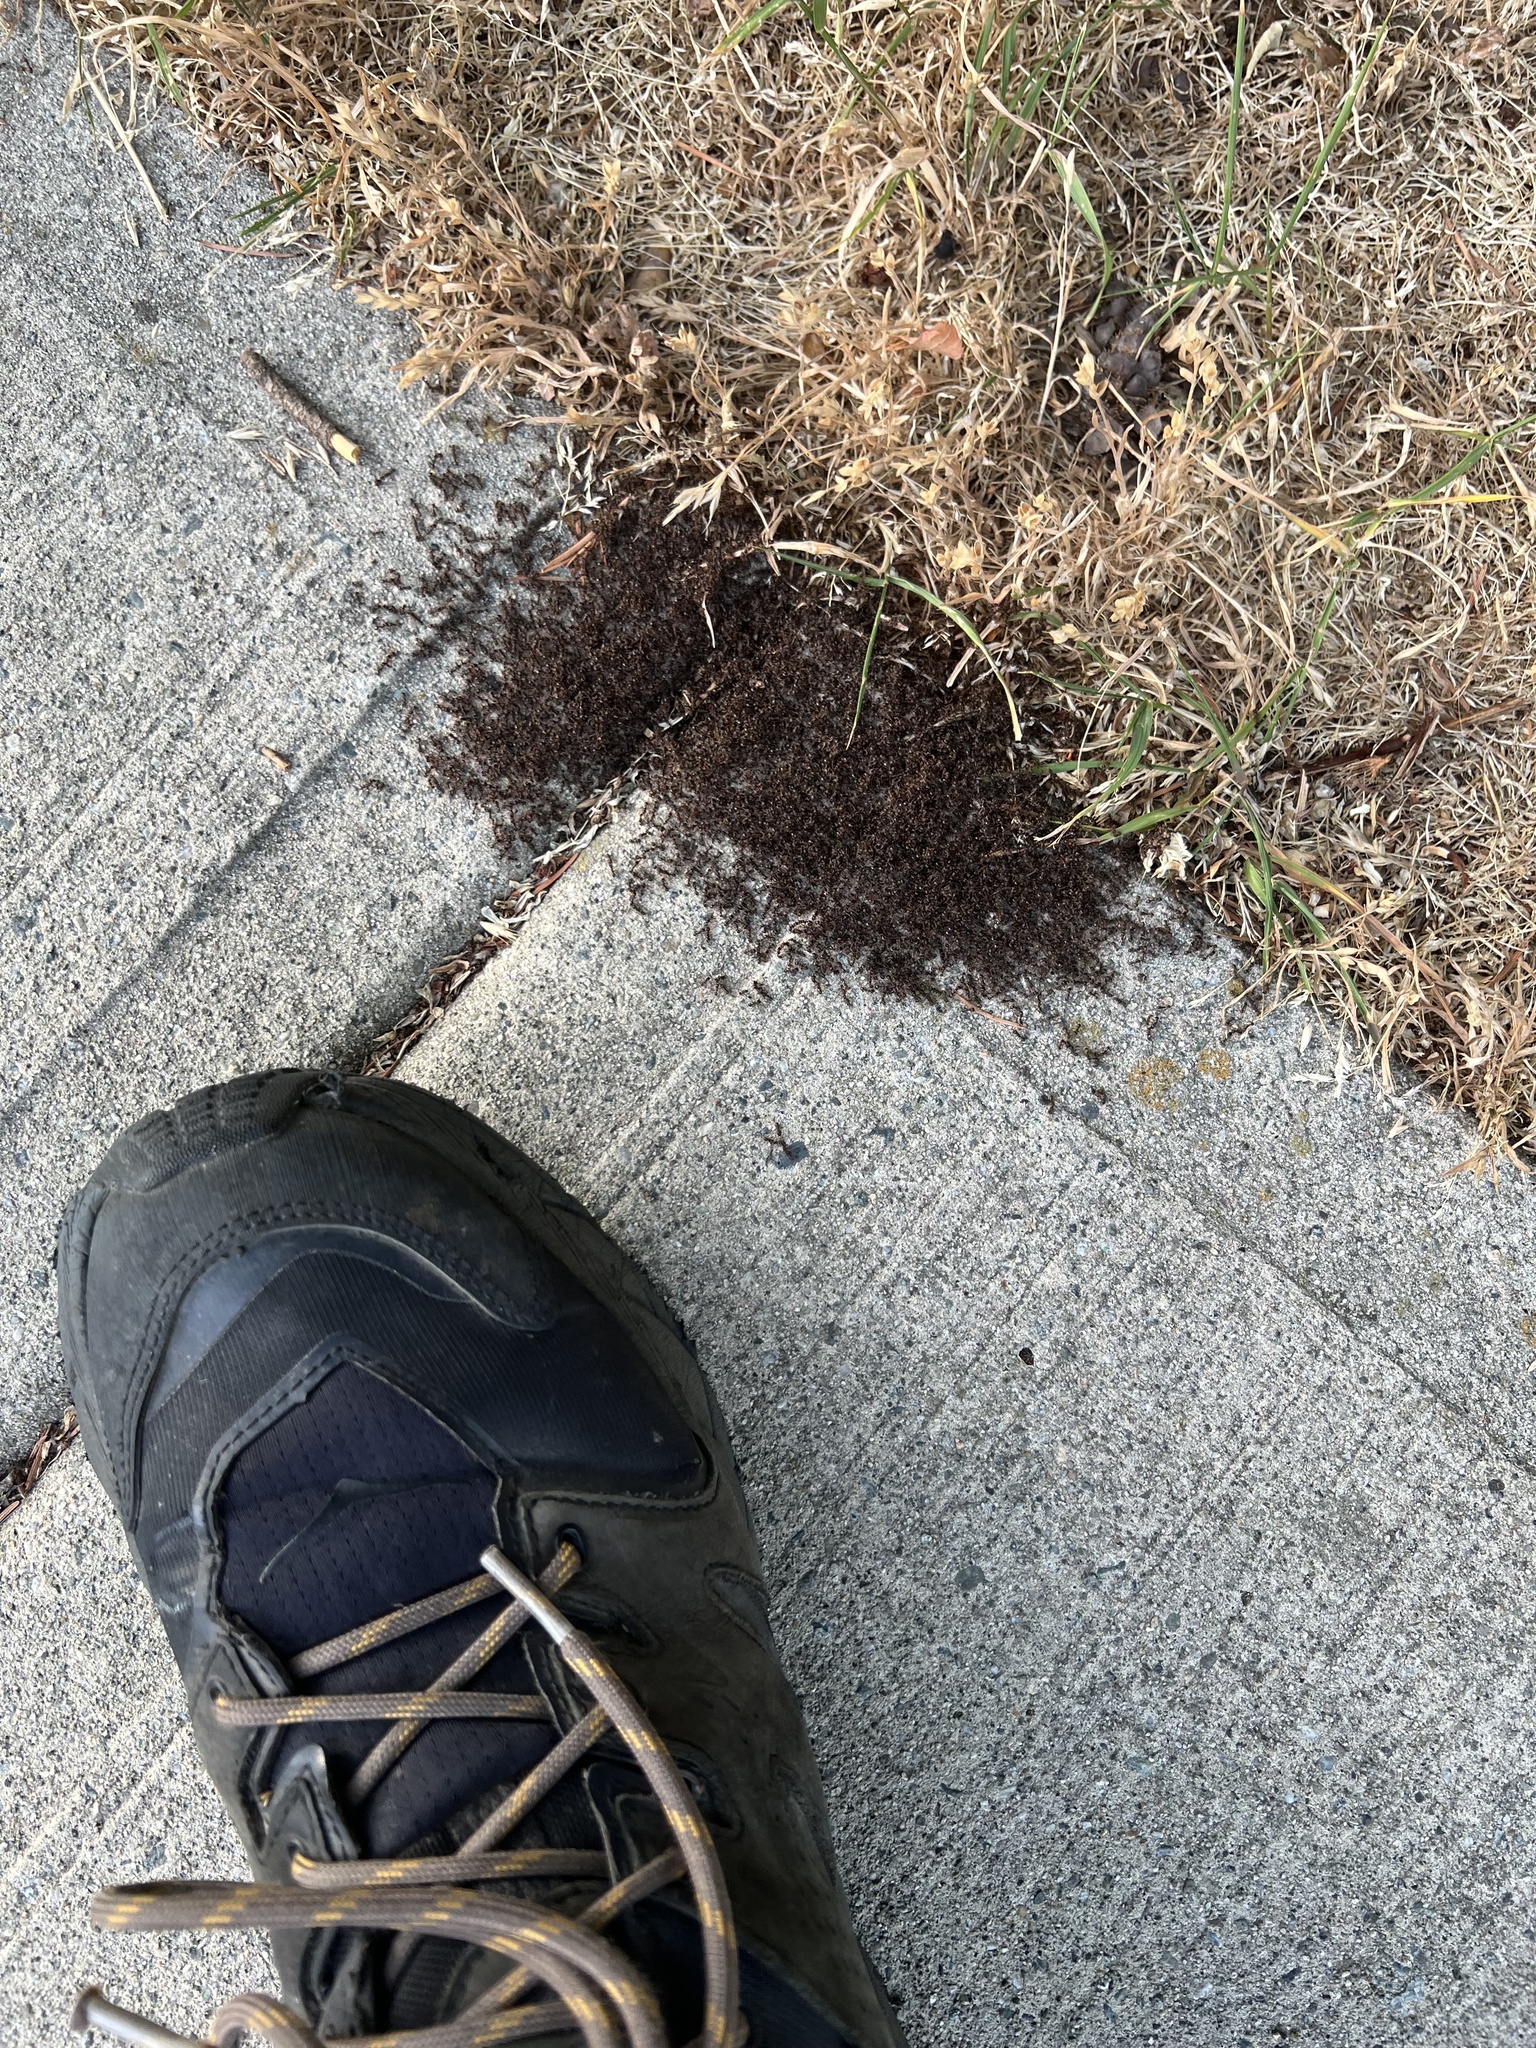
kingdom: Animalia
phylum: Arthropoda
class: Insecta
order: Hymenoptera
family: Formicidae
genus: Tetramorium
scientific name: Tetramorium immigrans
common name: Pavement ant
